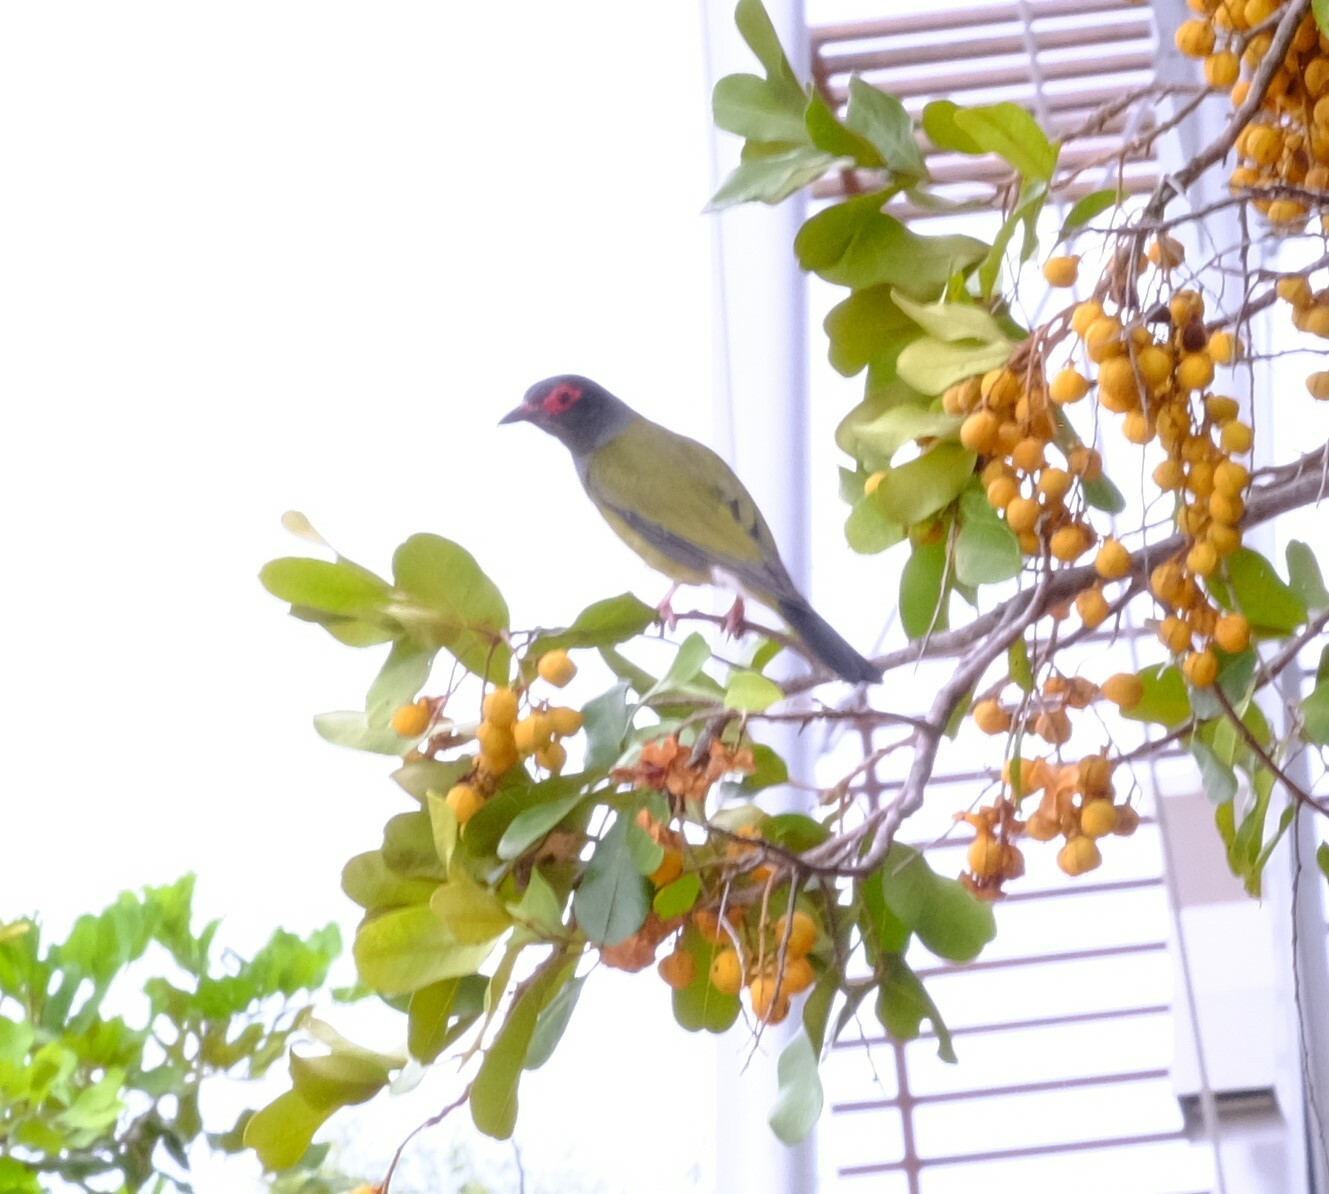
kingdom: Animalia
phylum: Chordata
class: Aves
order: Passeriformes
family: Oriolidae
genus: Sphecotheres
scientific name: Sphecotheres vieilloti
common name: Australasian figbird
